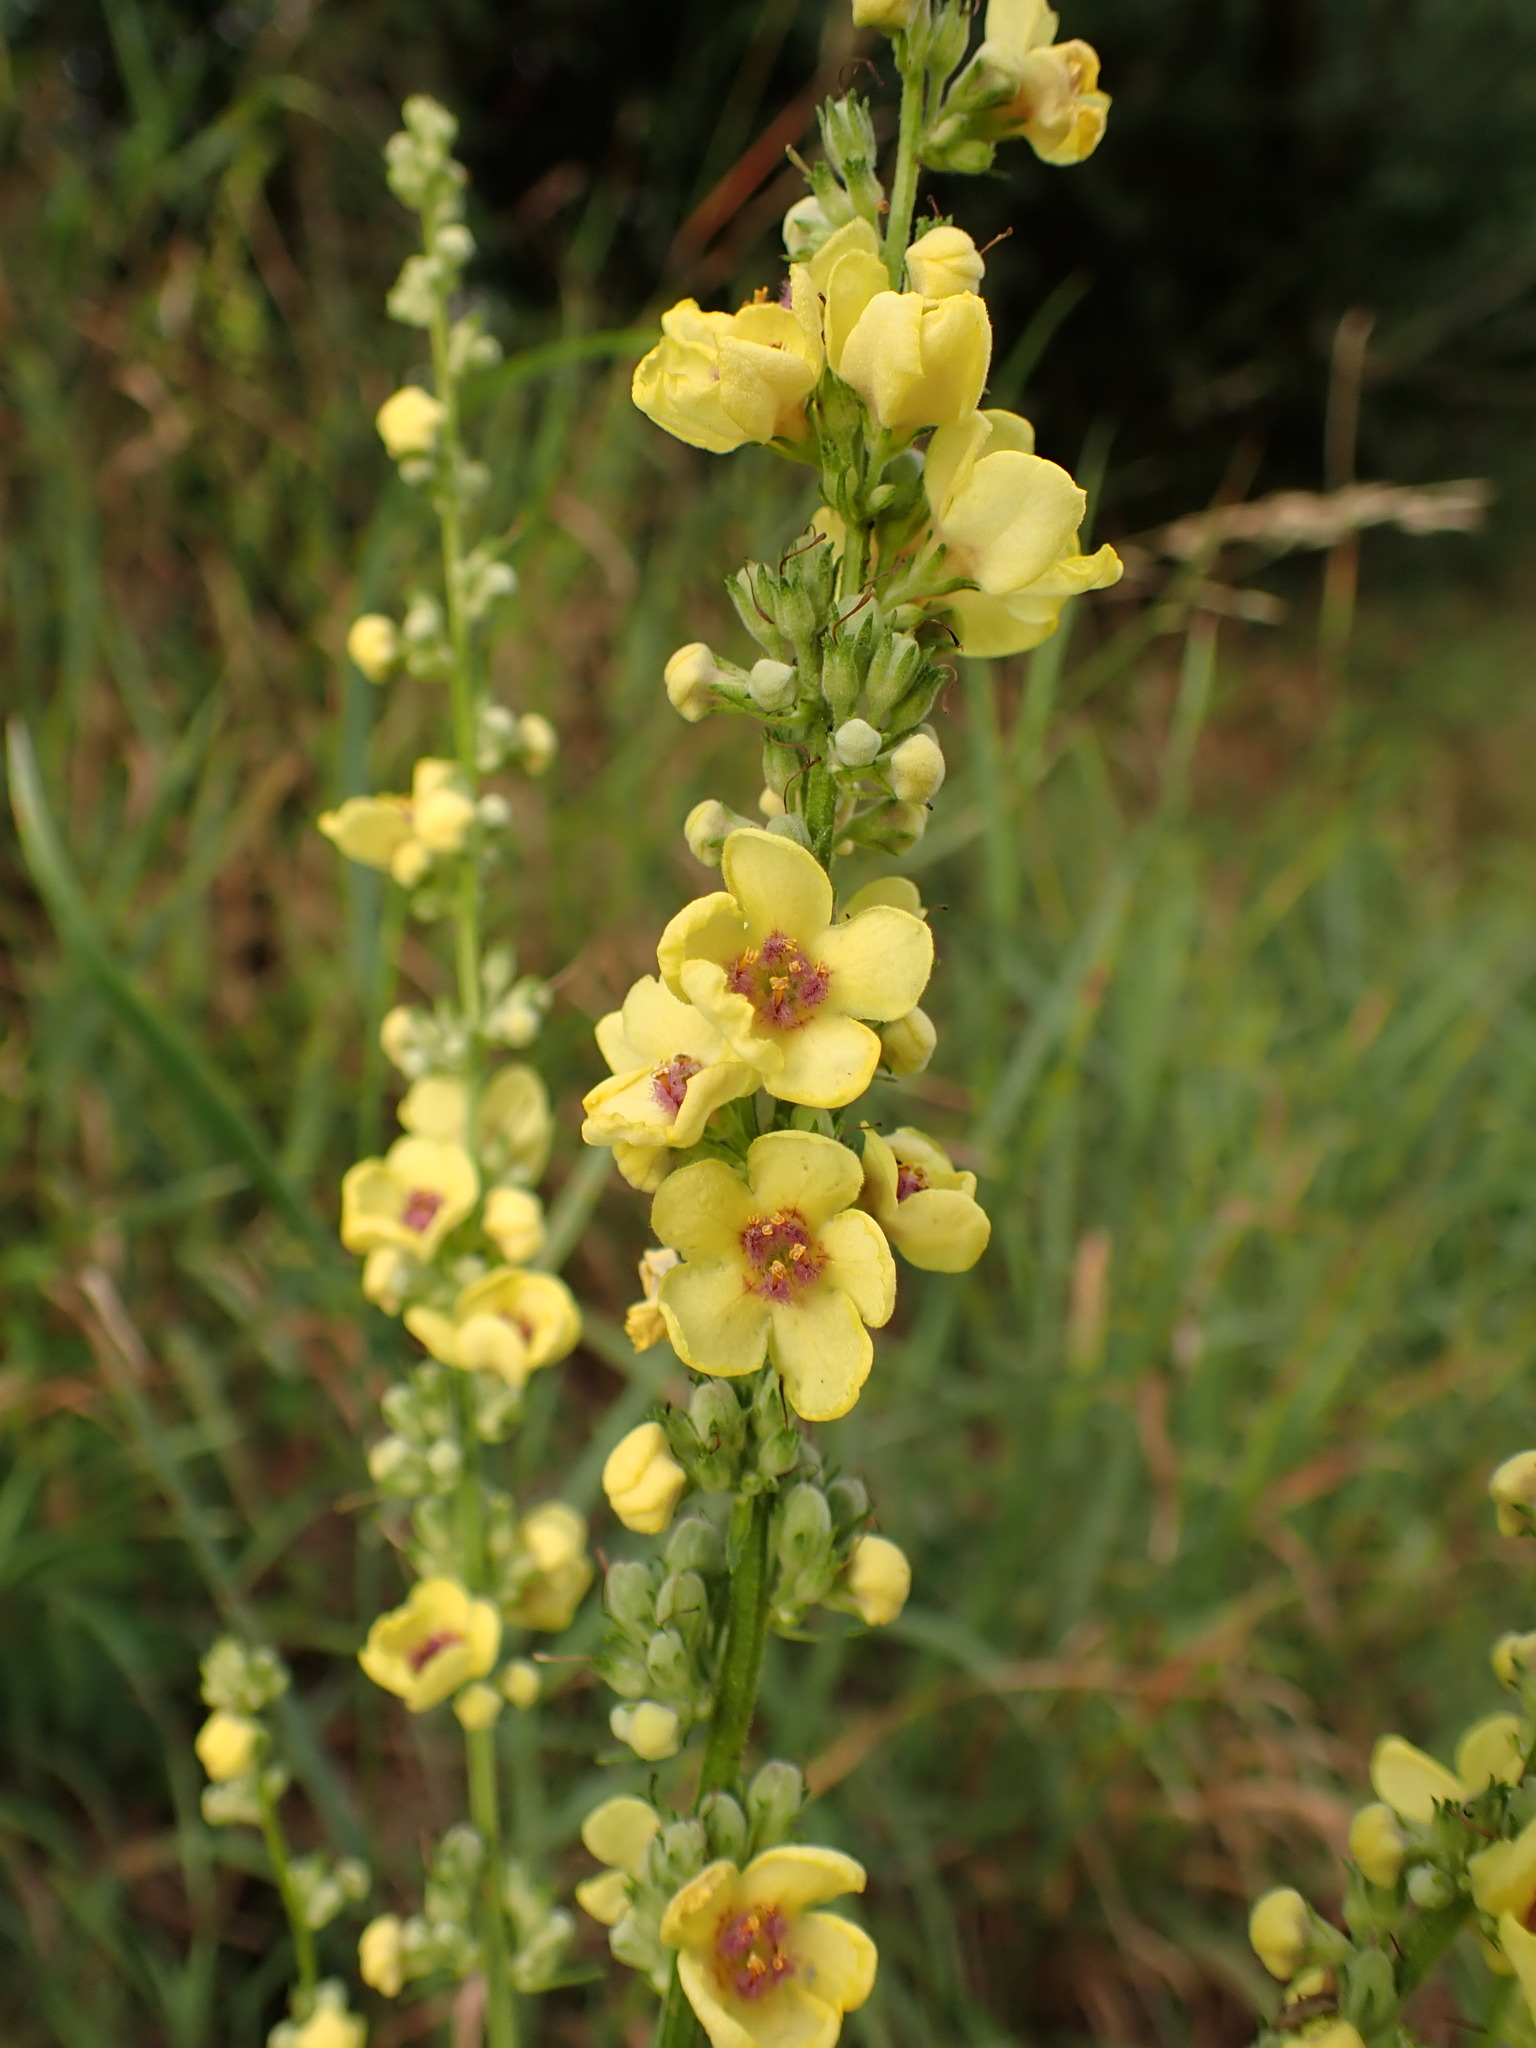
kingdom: Plantae
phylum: Tracheophyta
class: Magnoliopsida
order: Lamiales
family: Scrophulariaceae
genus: Verbascum
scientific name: Verbascum chaixii
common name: Nettle-leaved mullein
